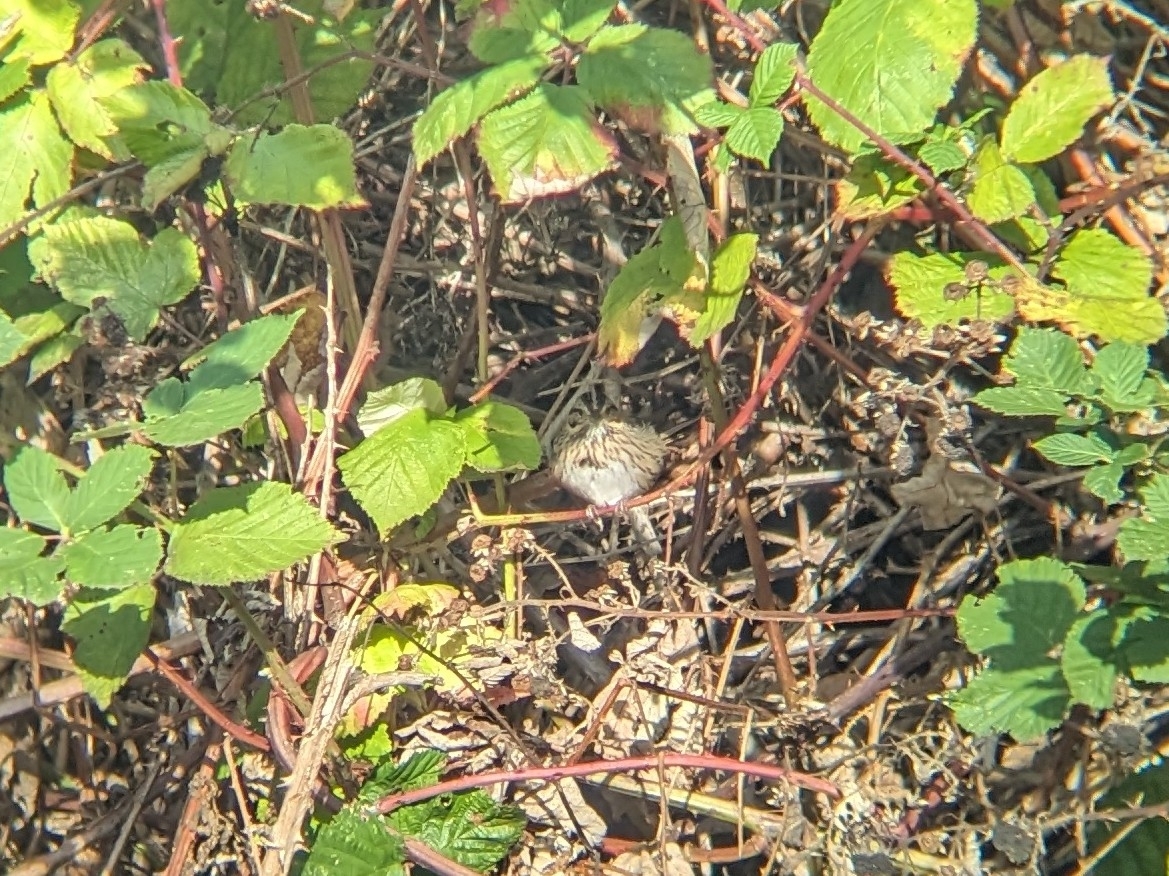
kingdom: Animalia
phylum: Chordata
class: Aves
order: Passeriformes
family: Passerellidae
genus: Melospiza
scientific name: Melospiza lincolnii
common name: Lincoln's sparrow
